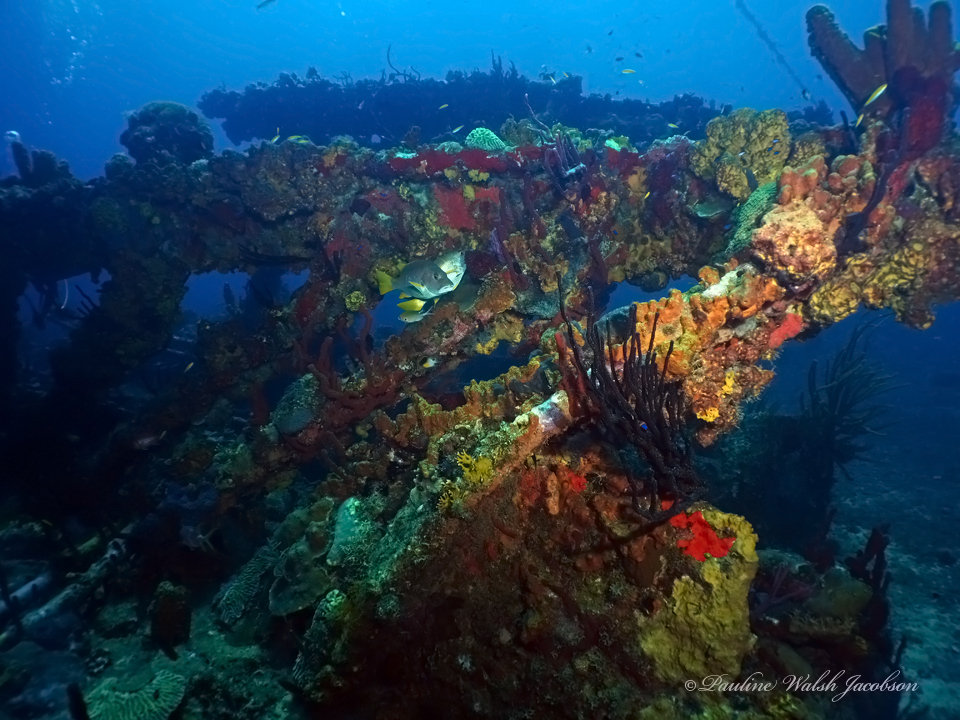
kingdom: Animalia
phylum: Chordata
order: Perciformes
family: Lutjanidae
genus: Lutjanus
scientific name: Lutjanus apodus
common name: Schoolmaster
